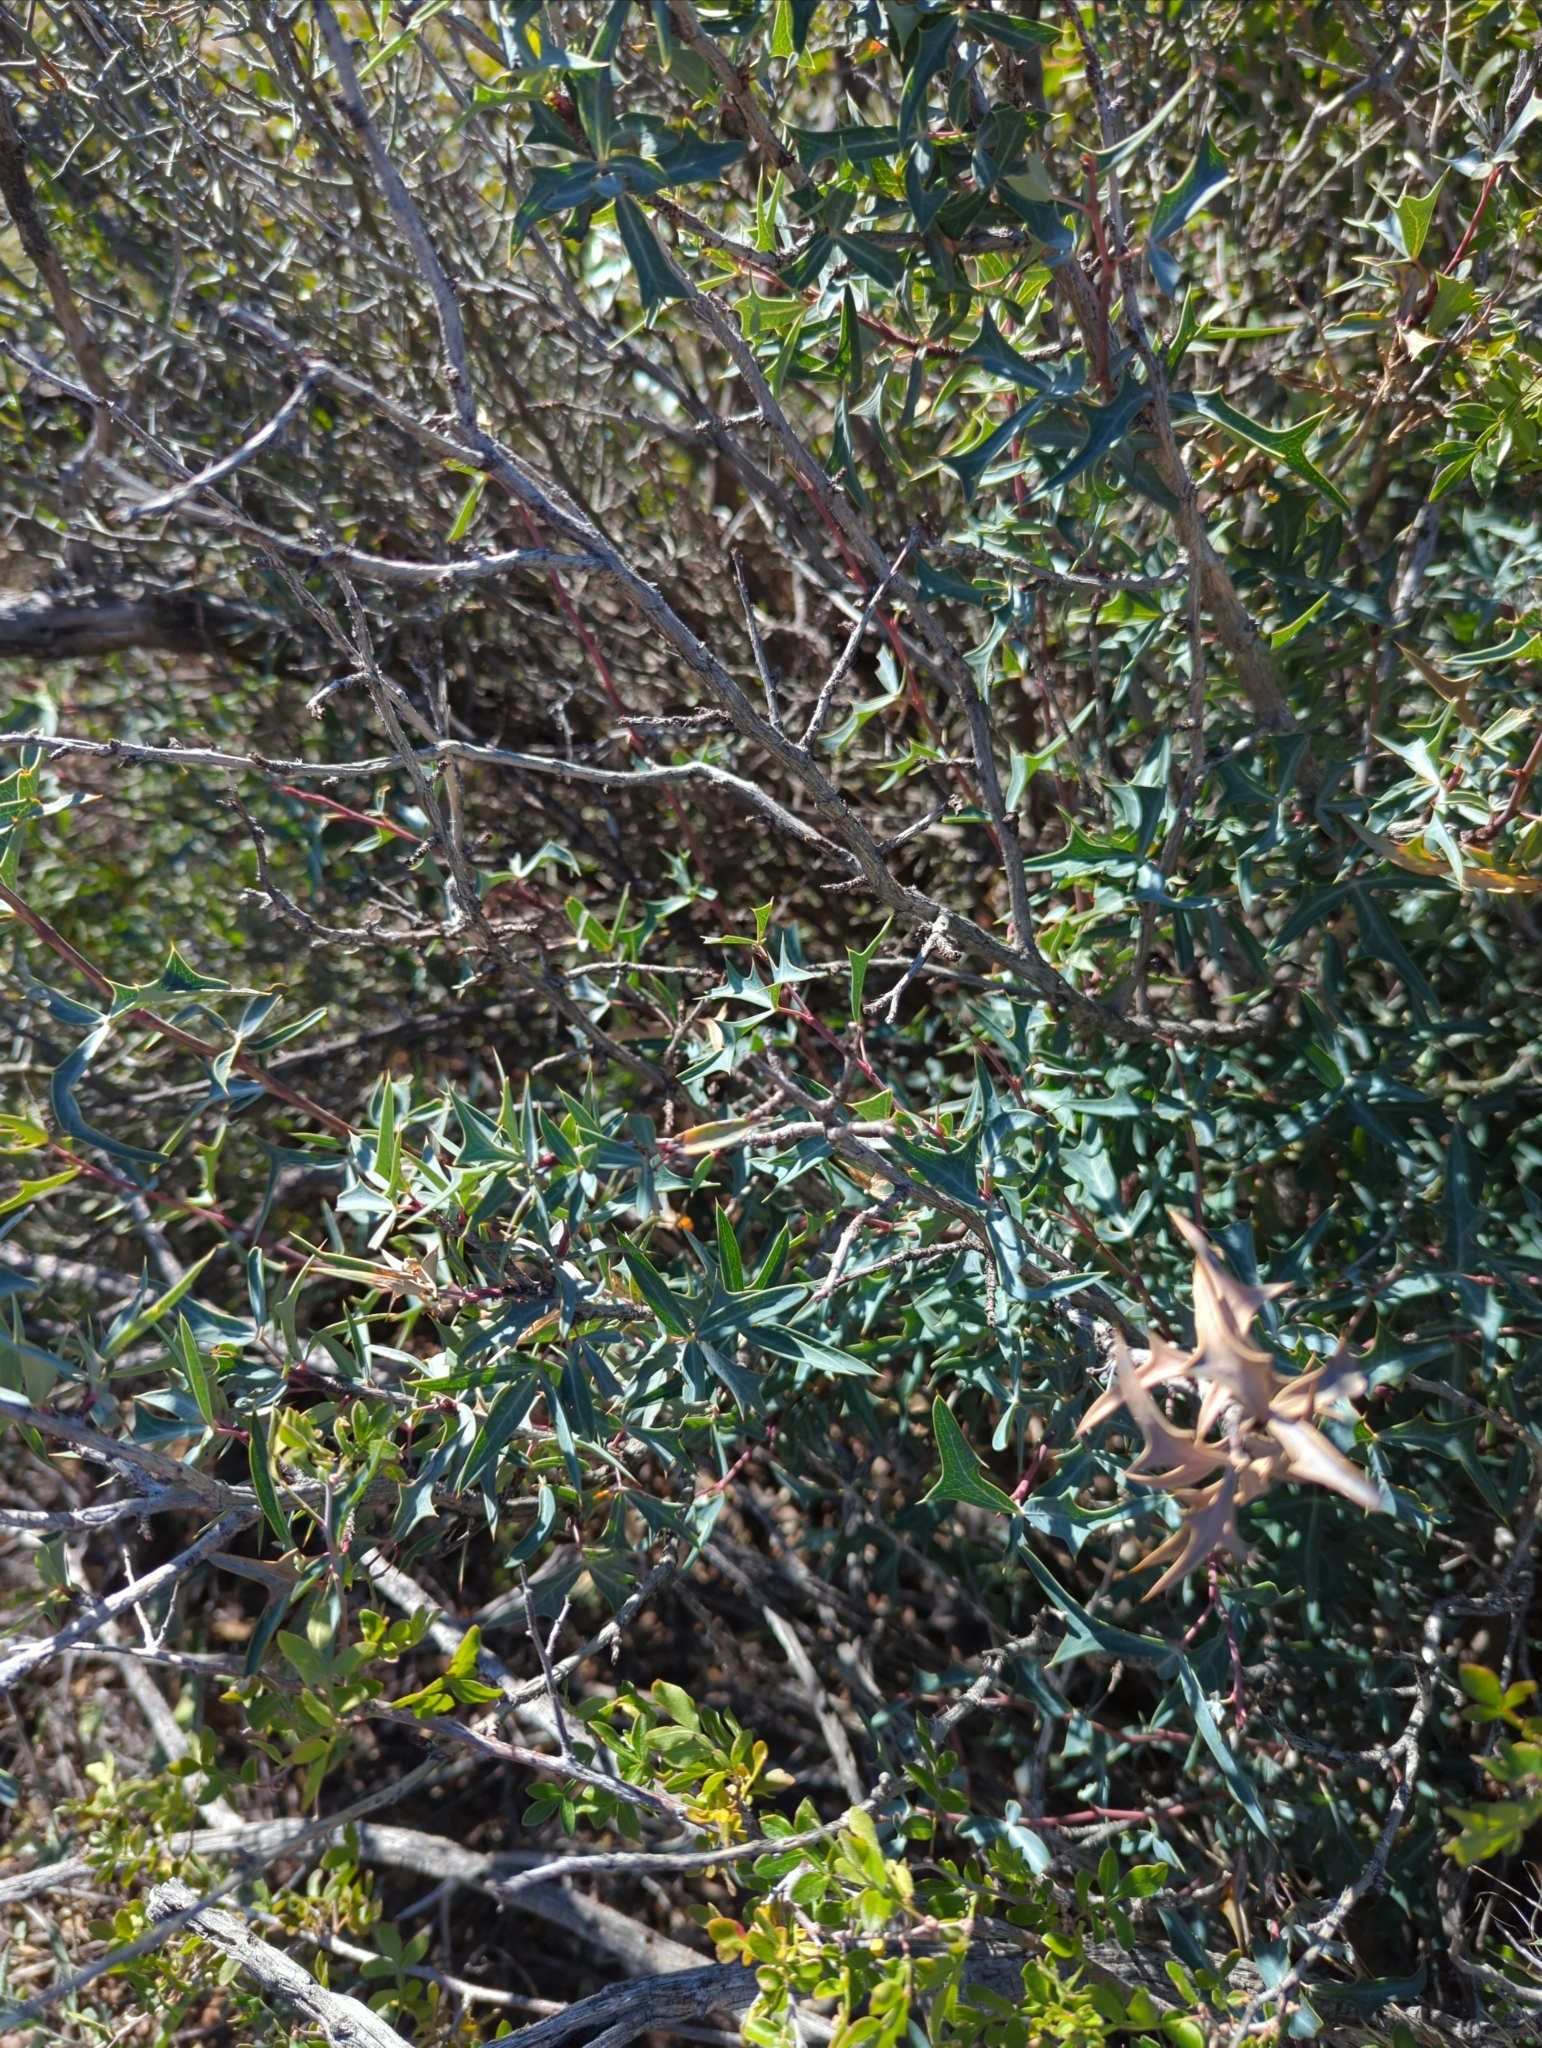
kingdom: Plantae
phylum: Tracheophyta
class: Magnoliopsida
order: Ranunculales
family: Berberidaceae
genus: Alloberberis
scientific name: Alloberberis trifoliolata
